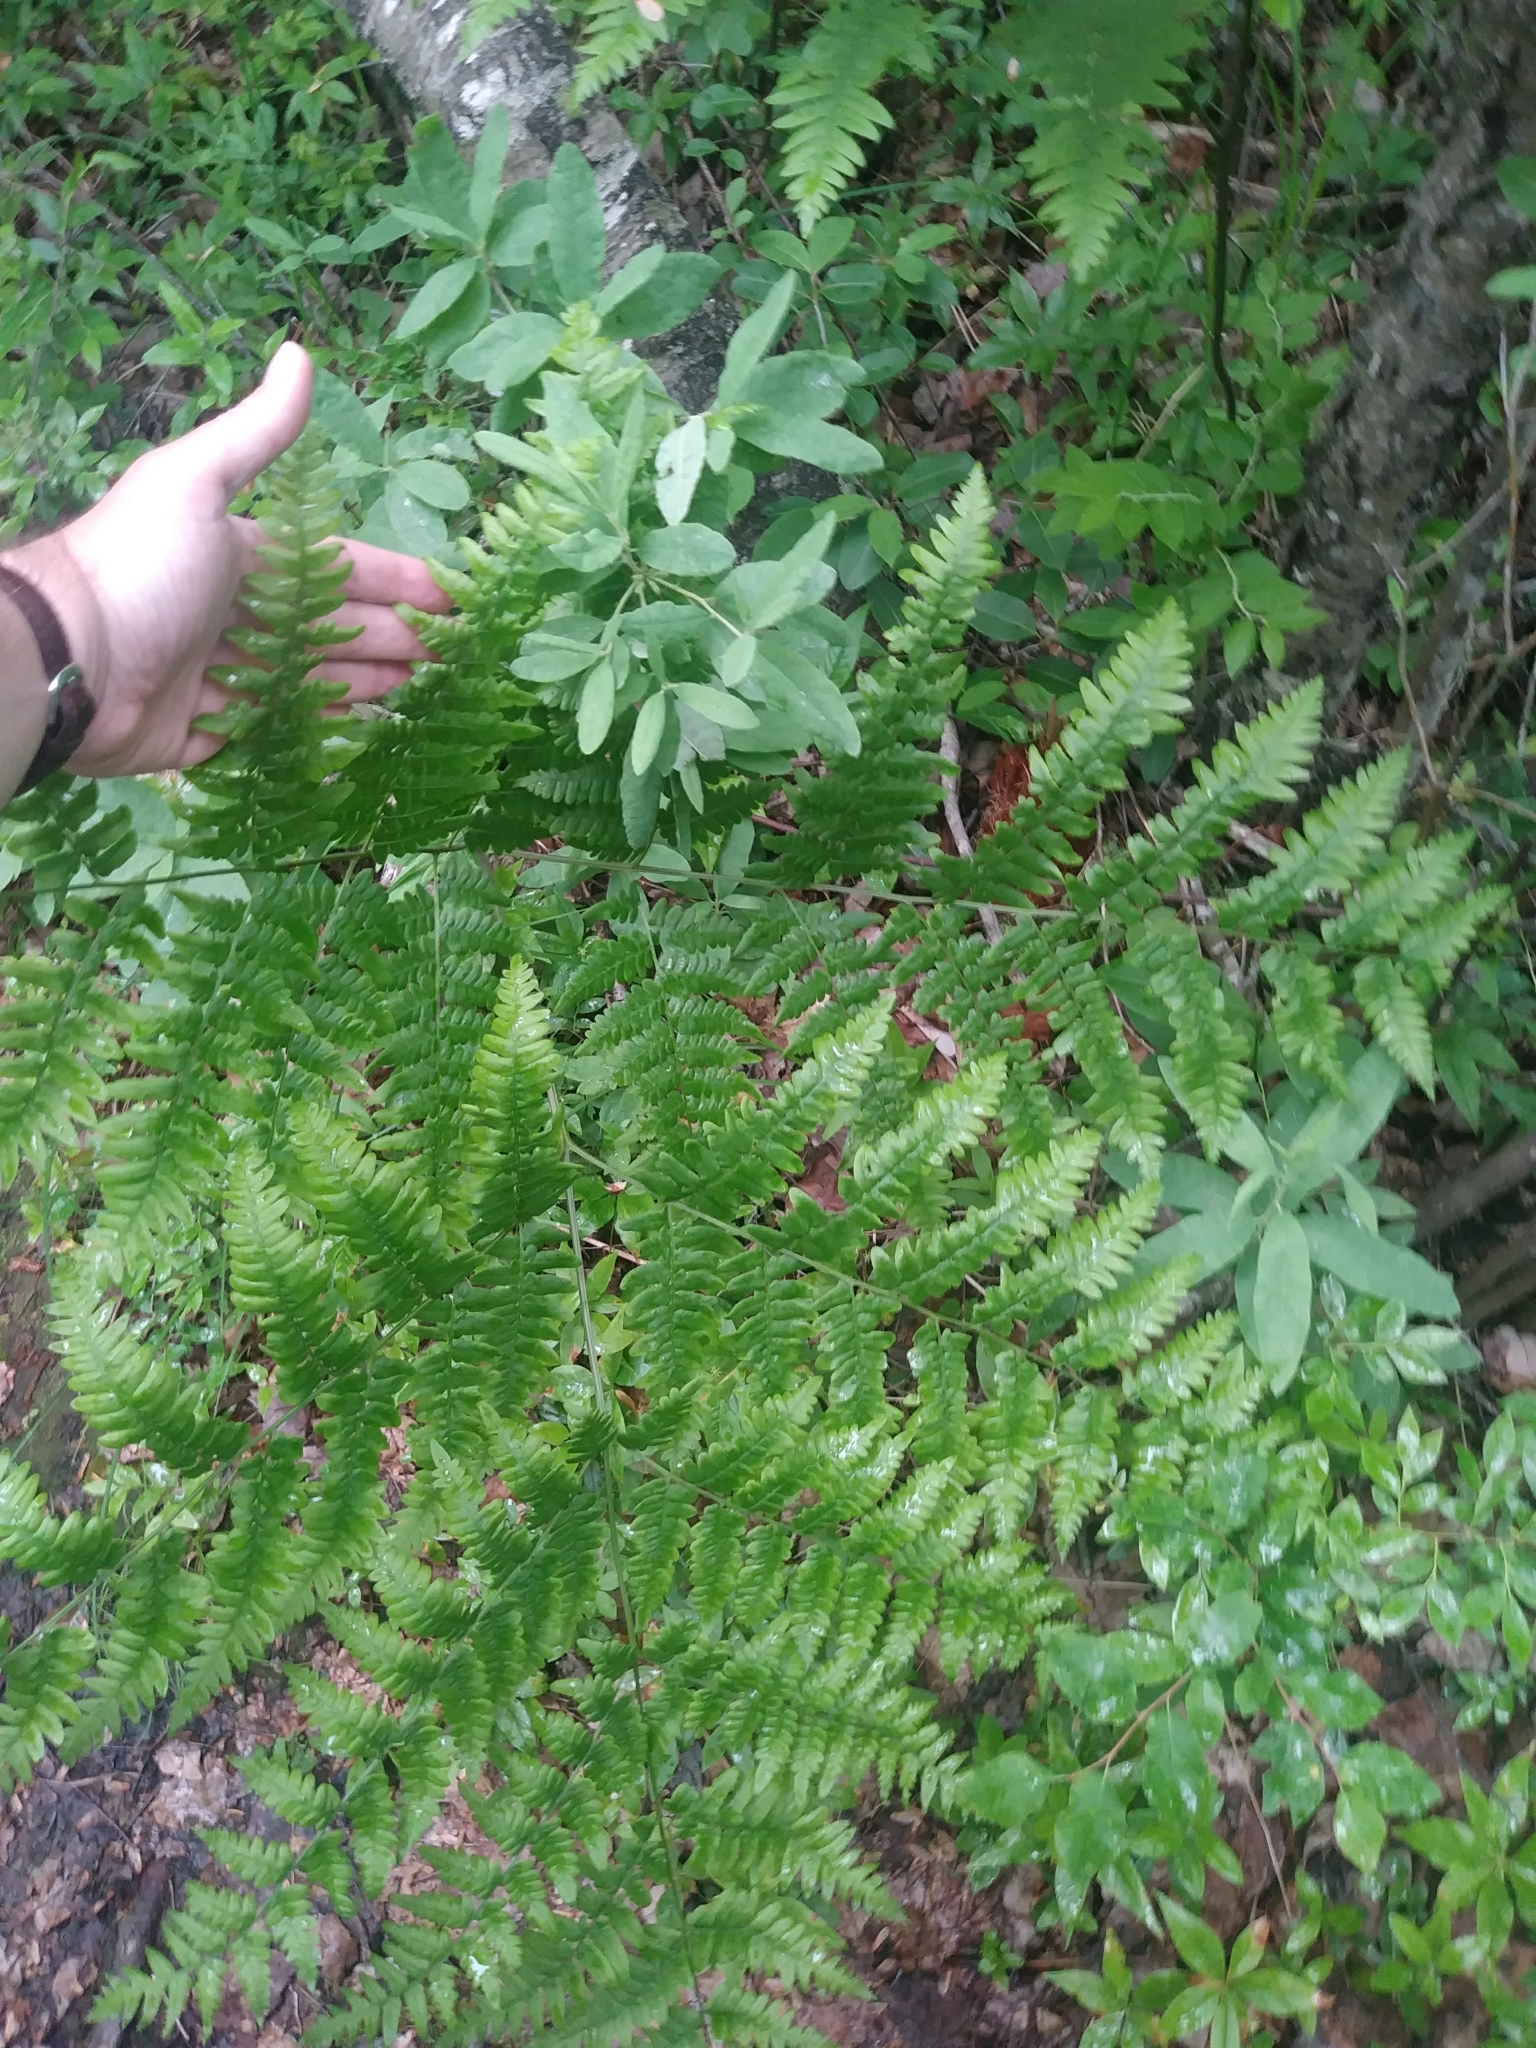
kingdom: Plantae
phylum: Tracheophyta
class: Polypodiopsida
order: Polypodiales
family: Dennstaedtiaceae
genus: Pteridium
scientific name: Pteridium aquilinum
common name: Bracken
